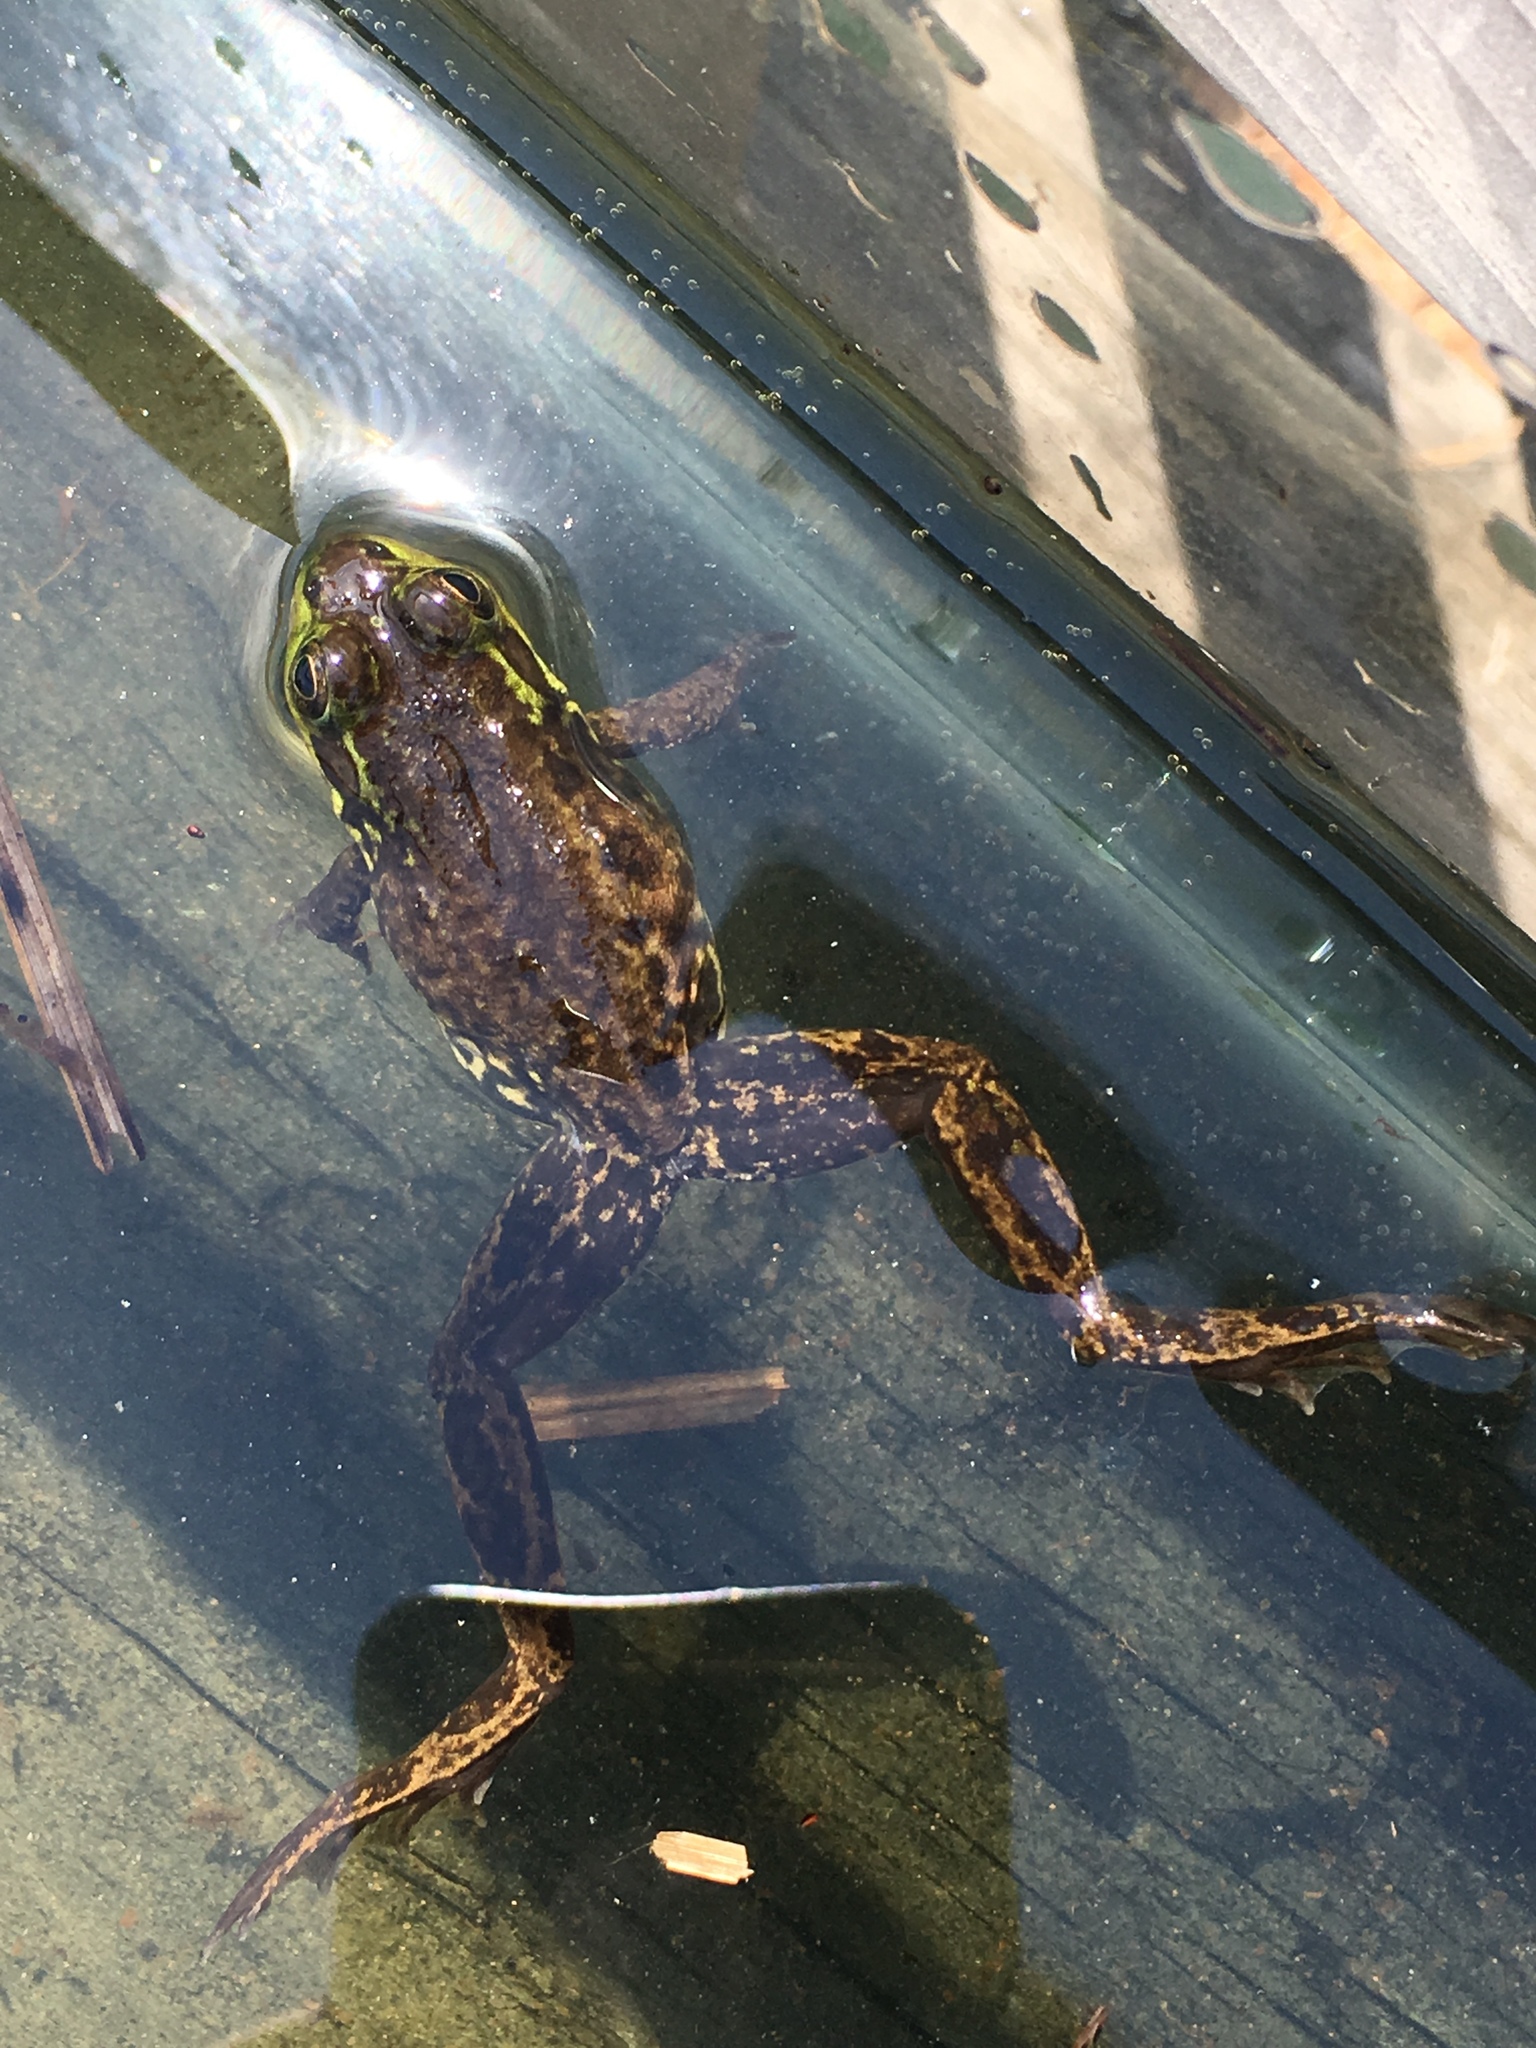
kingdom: Animalia
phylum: Chordata
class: Amphibia
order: Anura
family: Ranidae
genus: Lithobates
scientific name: Lithobates septentrionalis
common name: Mink frog
